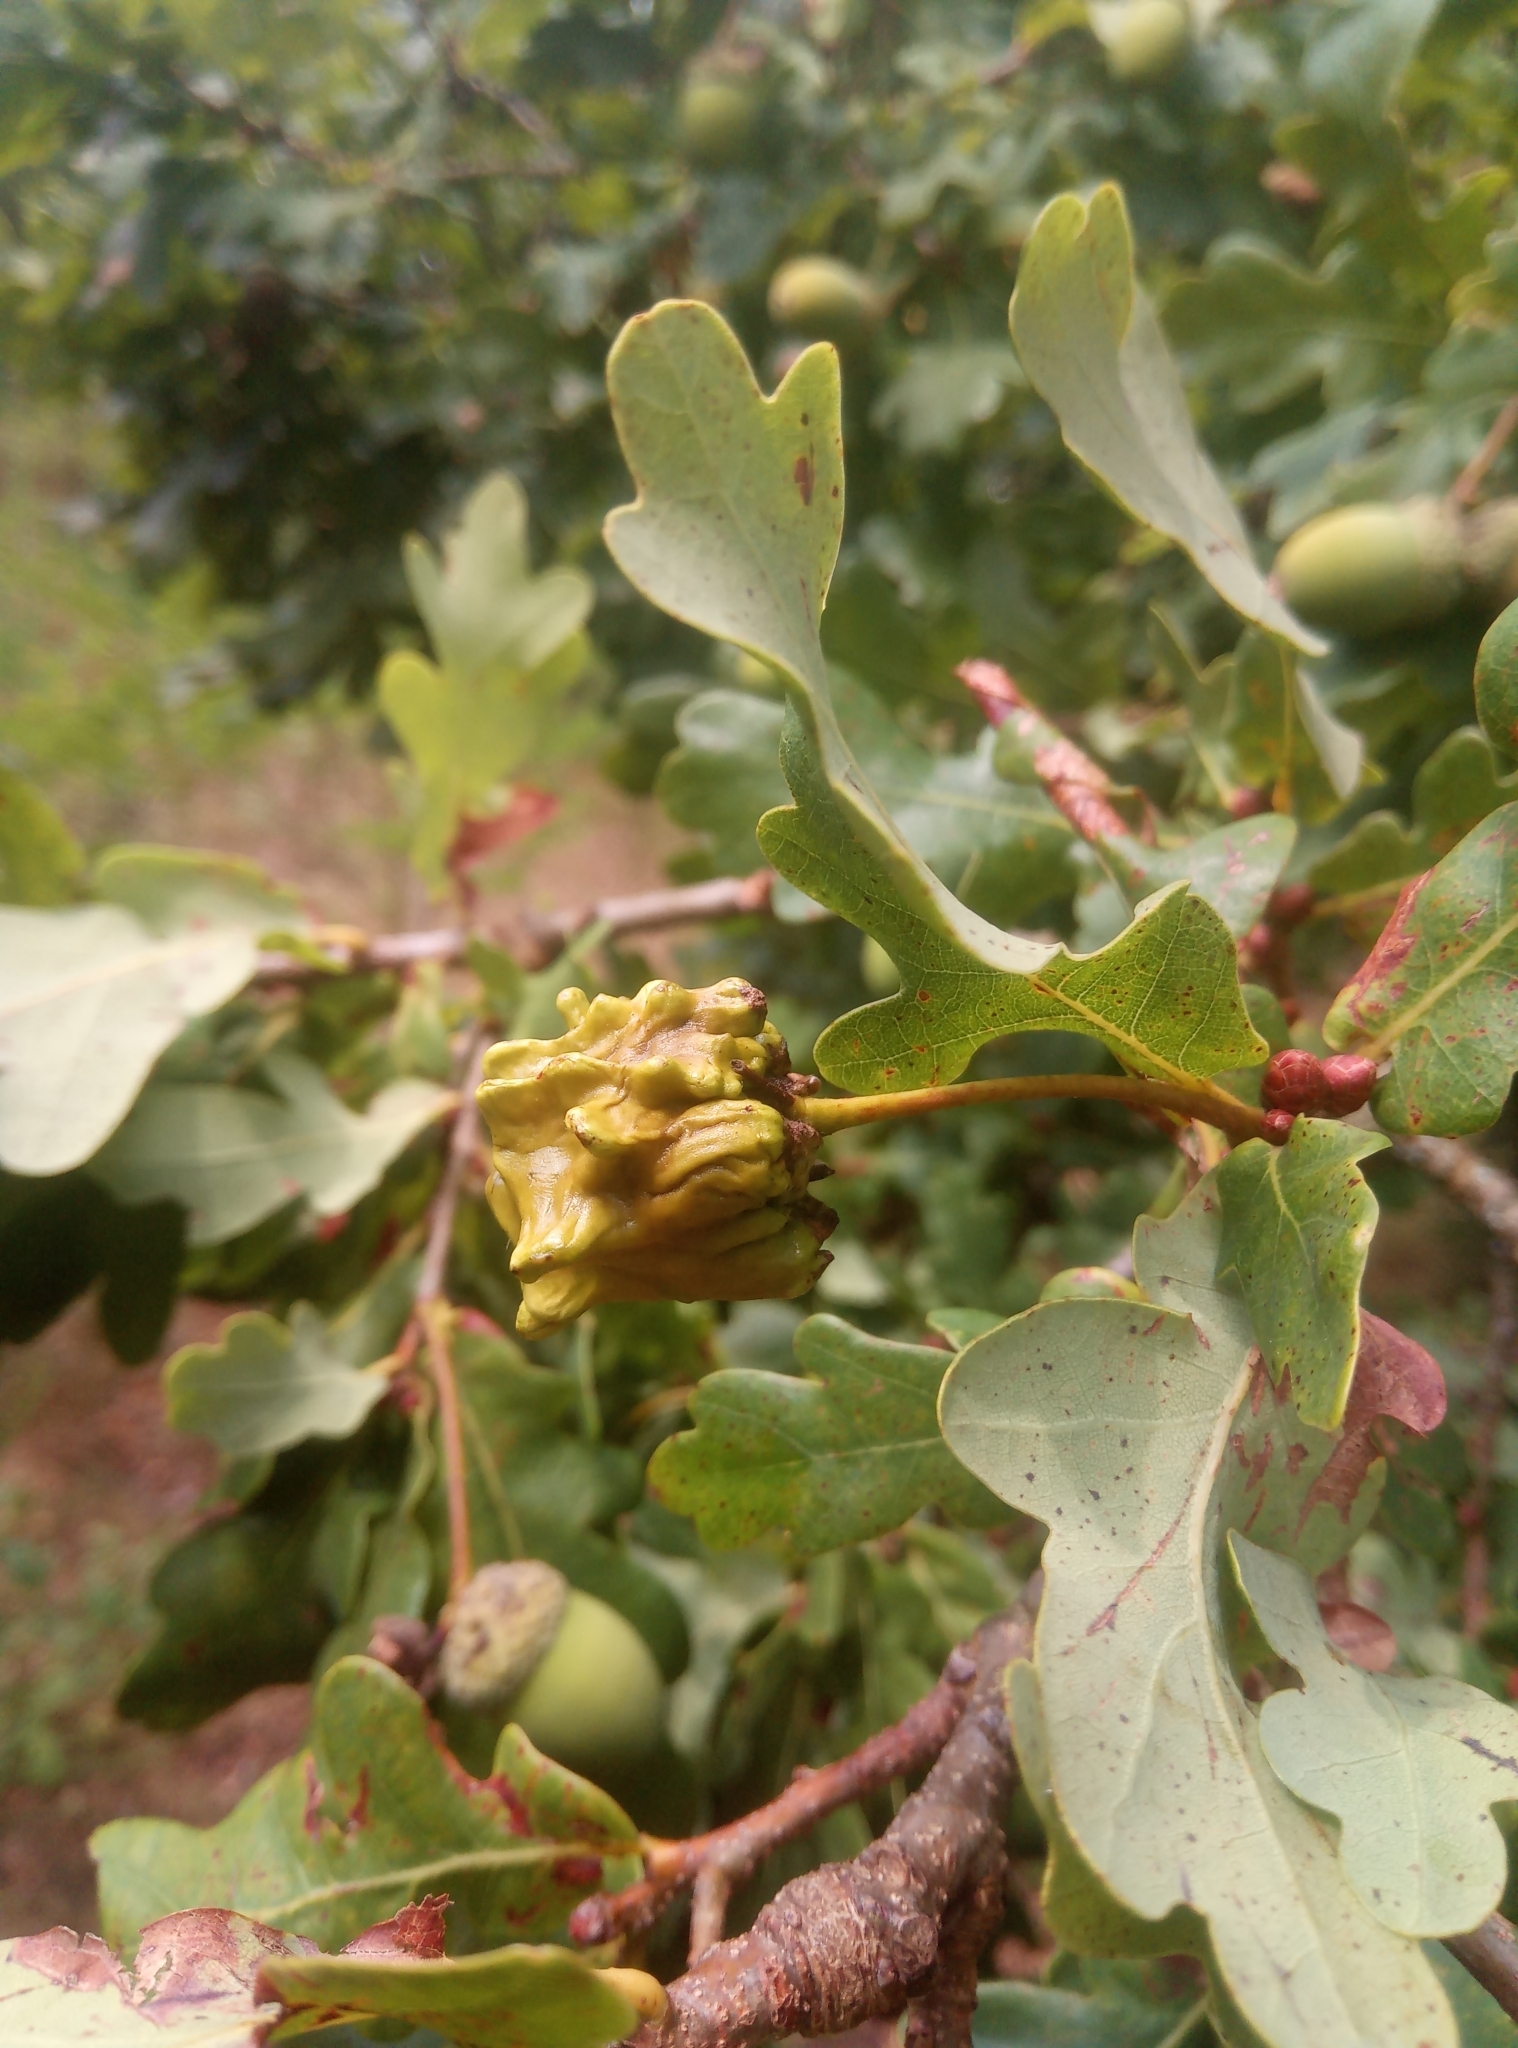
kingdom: Animalia
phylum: Arthropoda
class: Insecta
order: Hymenoptera
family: Cynipidae
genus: Andricus
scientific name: Andricus quercuscalicis
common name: Knopper gall
